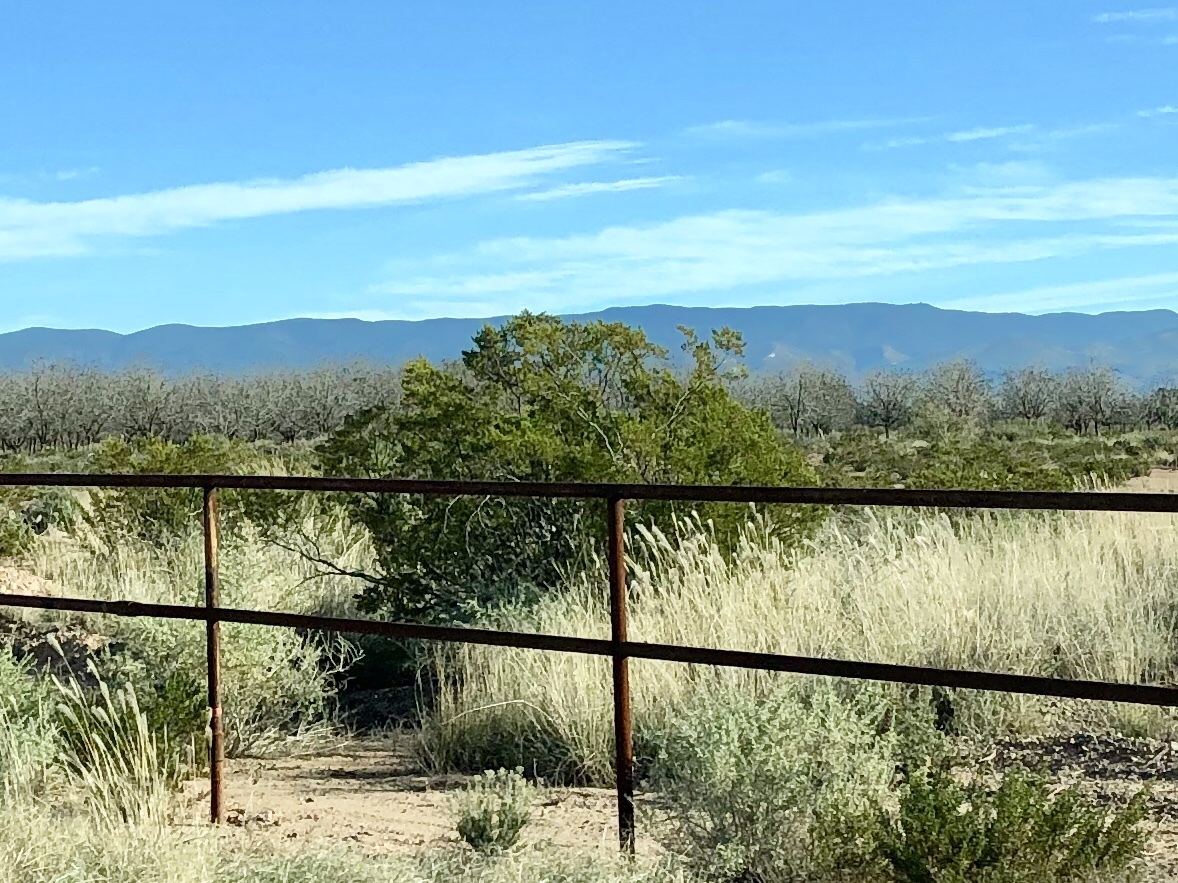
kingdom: Plantae
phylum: Tracheophyta
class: Magnoliopsida
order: Zygophyllales
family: Zygophyllaceae
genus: Larrea
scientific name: Larrea tridentata
